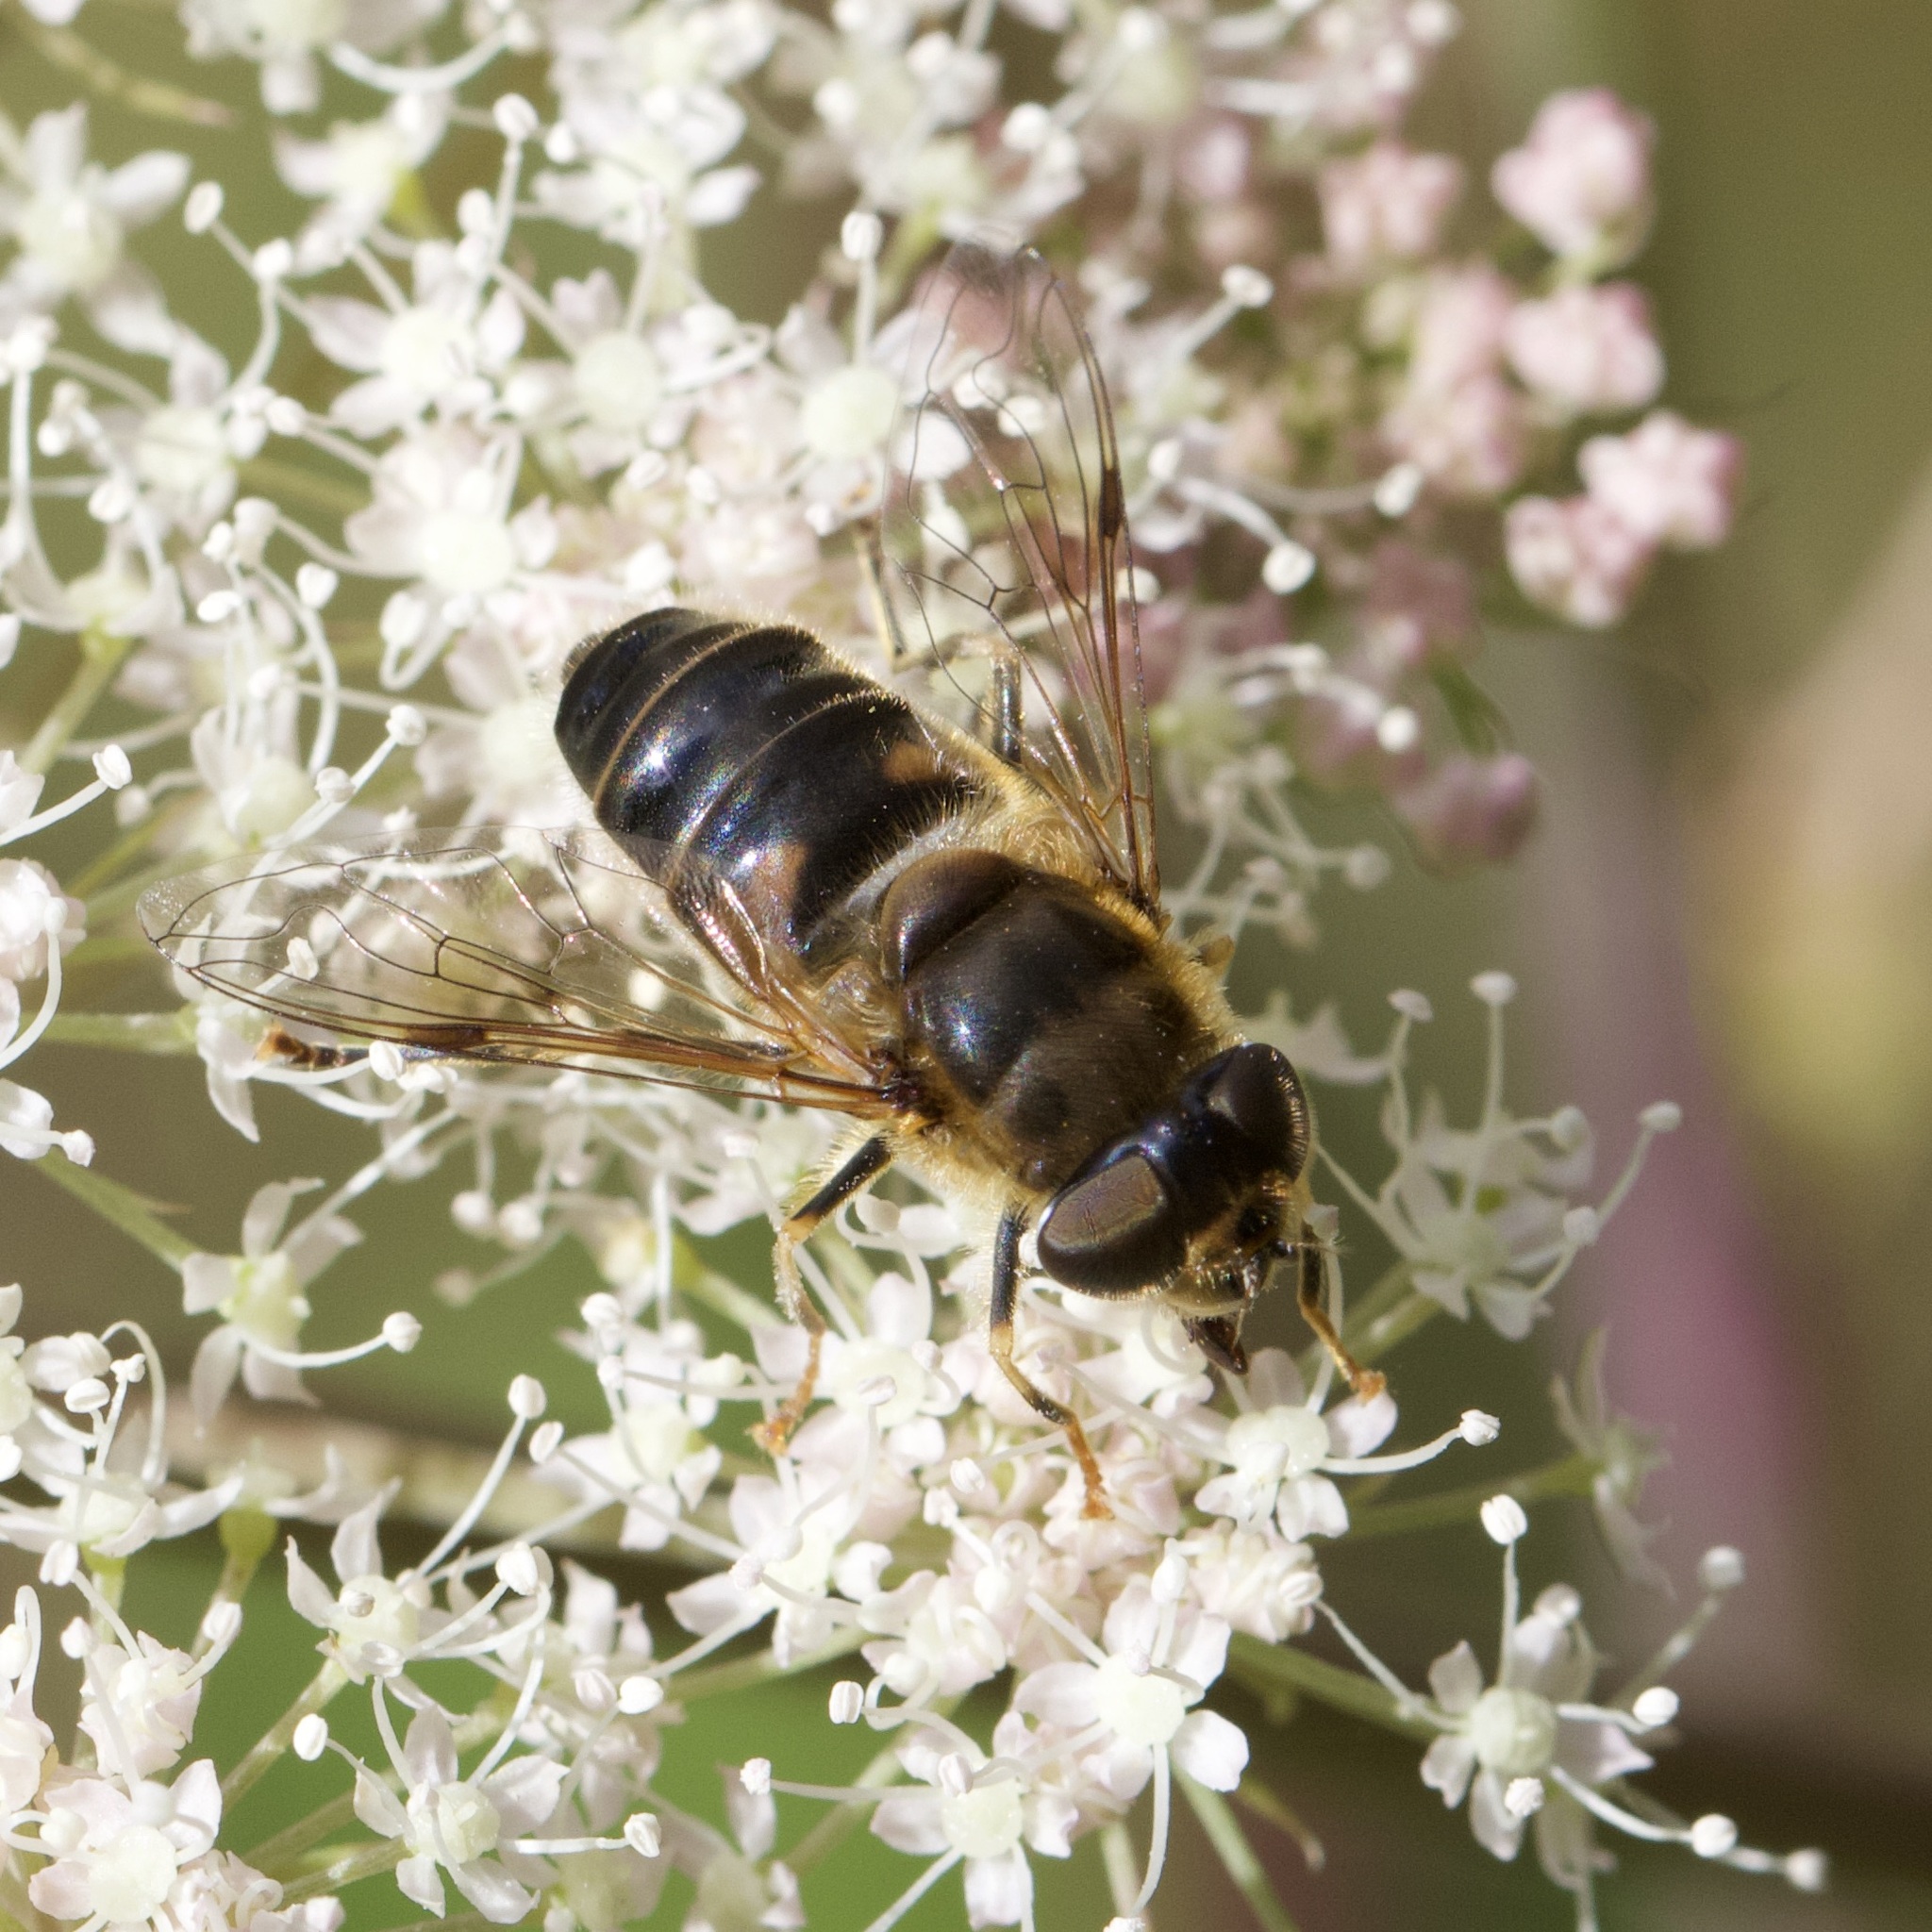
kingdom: Animalia
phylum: Arthropoda
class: Insecta
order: Diptera
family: Syrphidae
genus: Eristalis
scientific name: Eristalis pertinax
